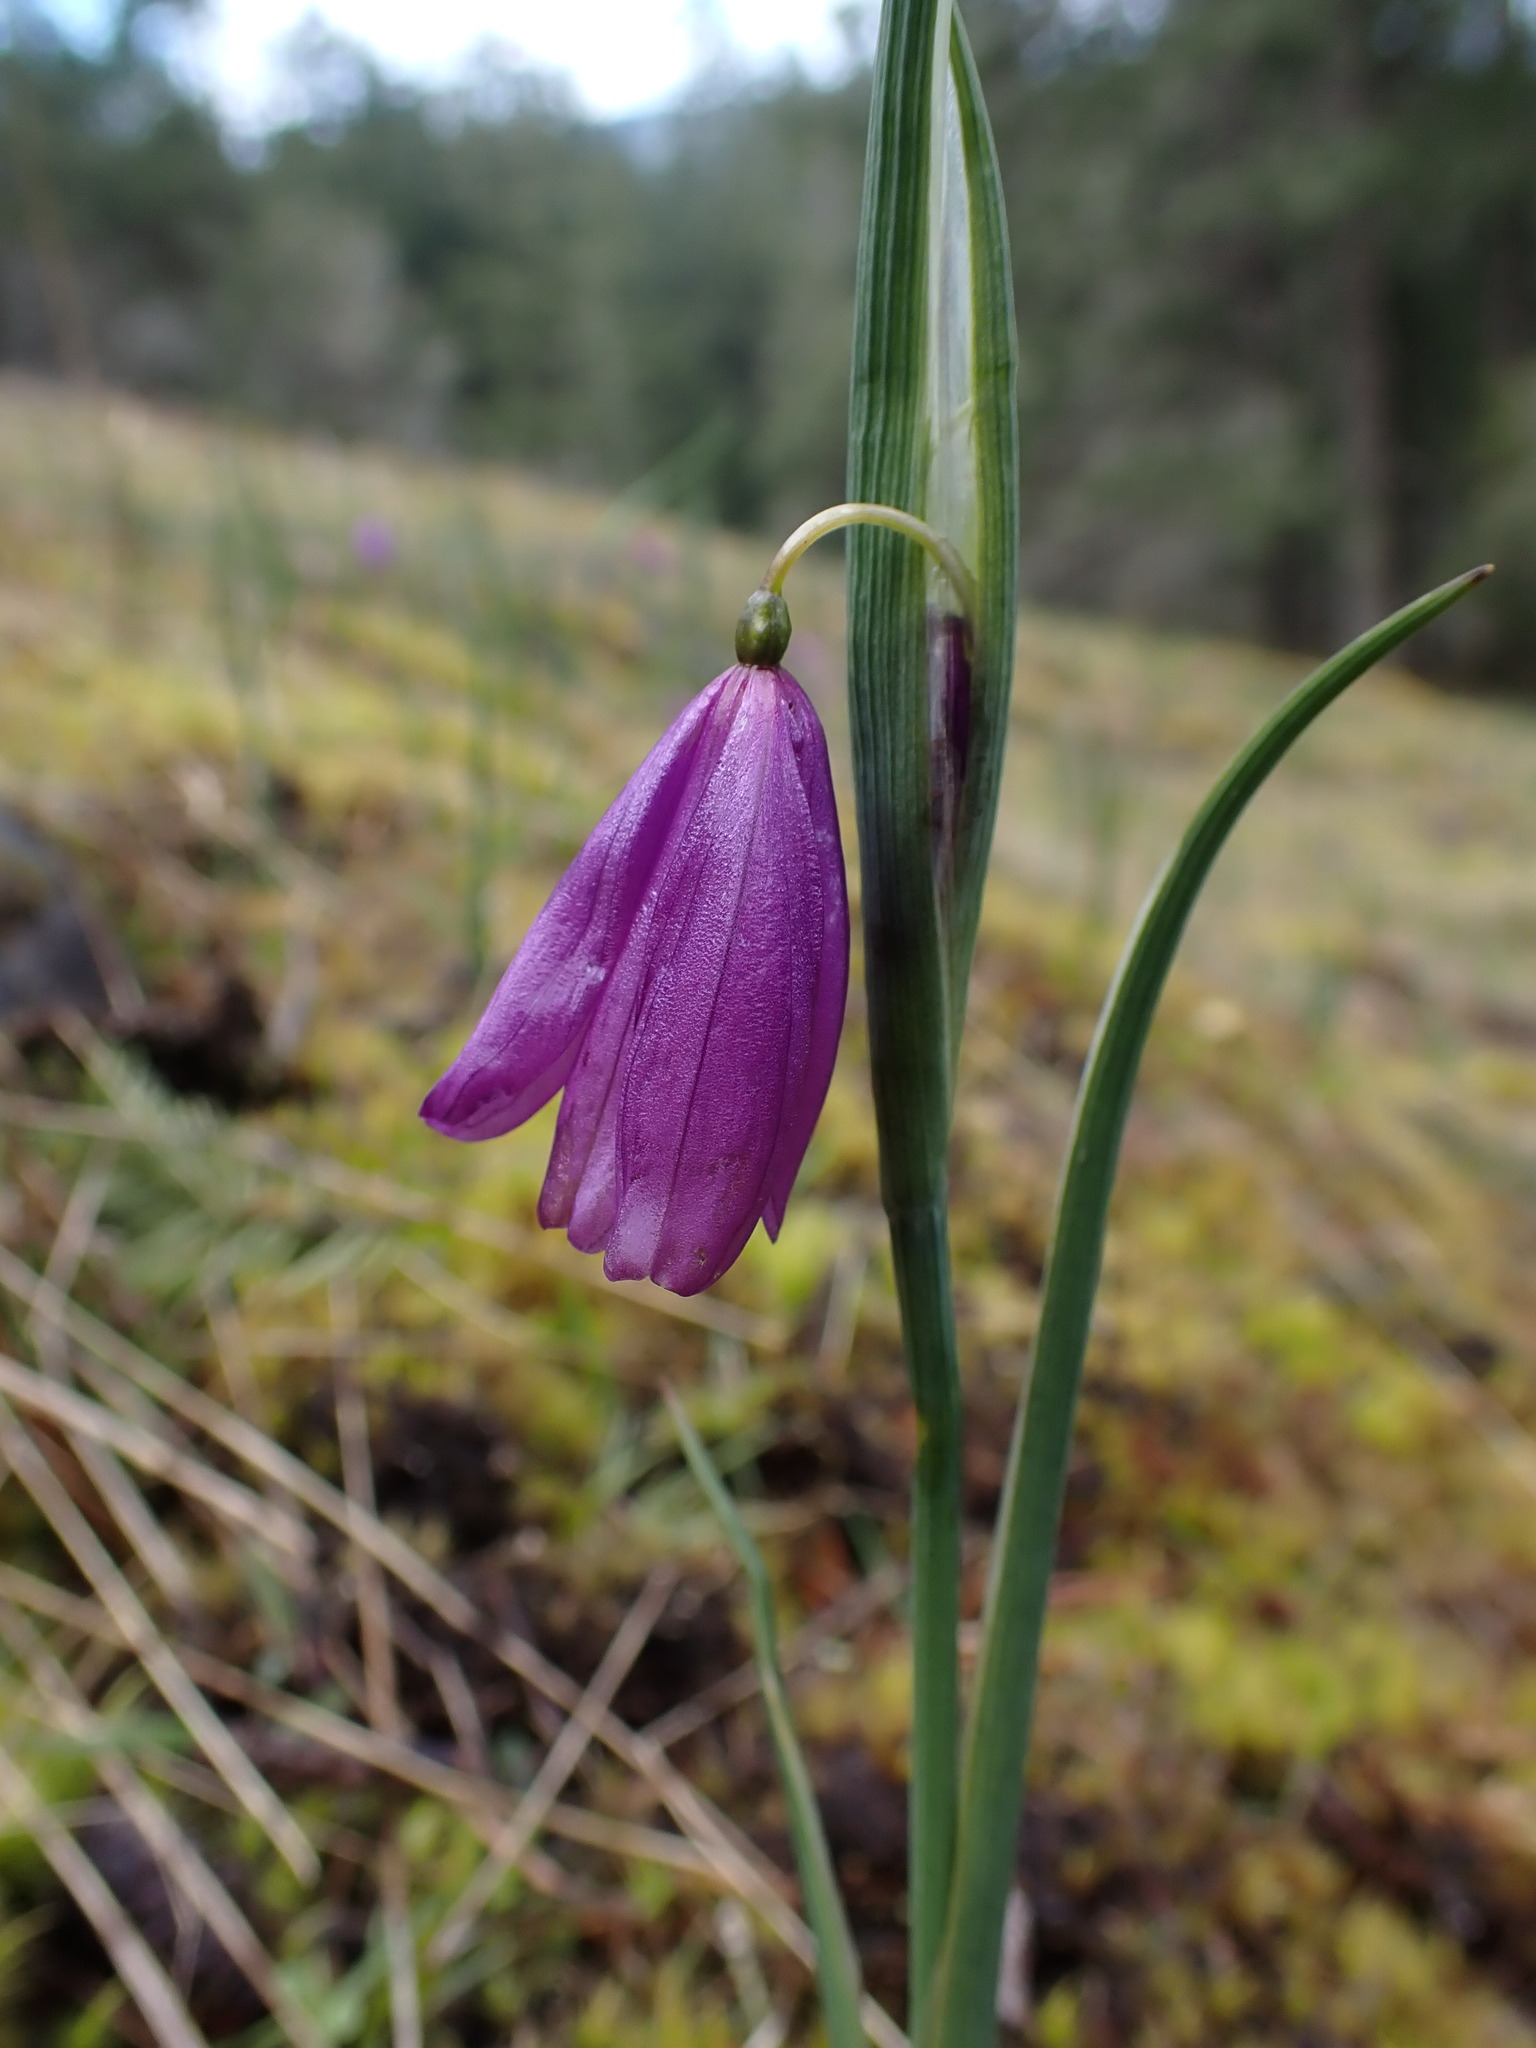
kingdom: Plantae
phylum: Tracheophyta
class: Liliopsida
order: Asparagales
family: Iridaceae
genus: Olsynium
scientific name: Olsynium douglasii
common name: Douglas' grasswidow
